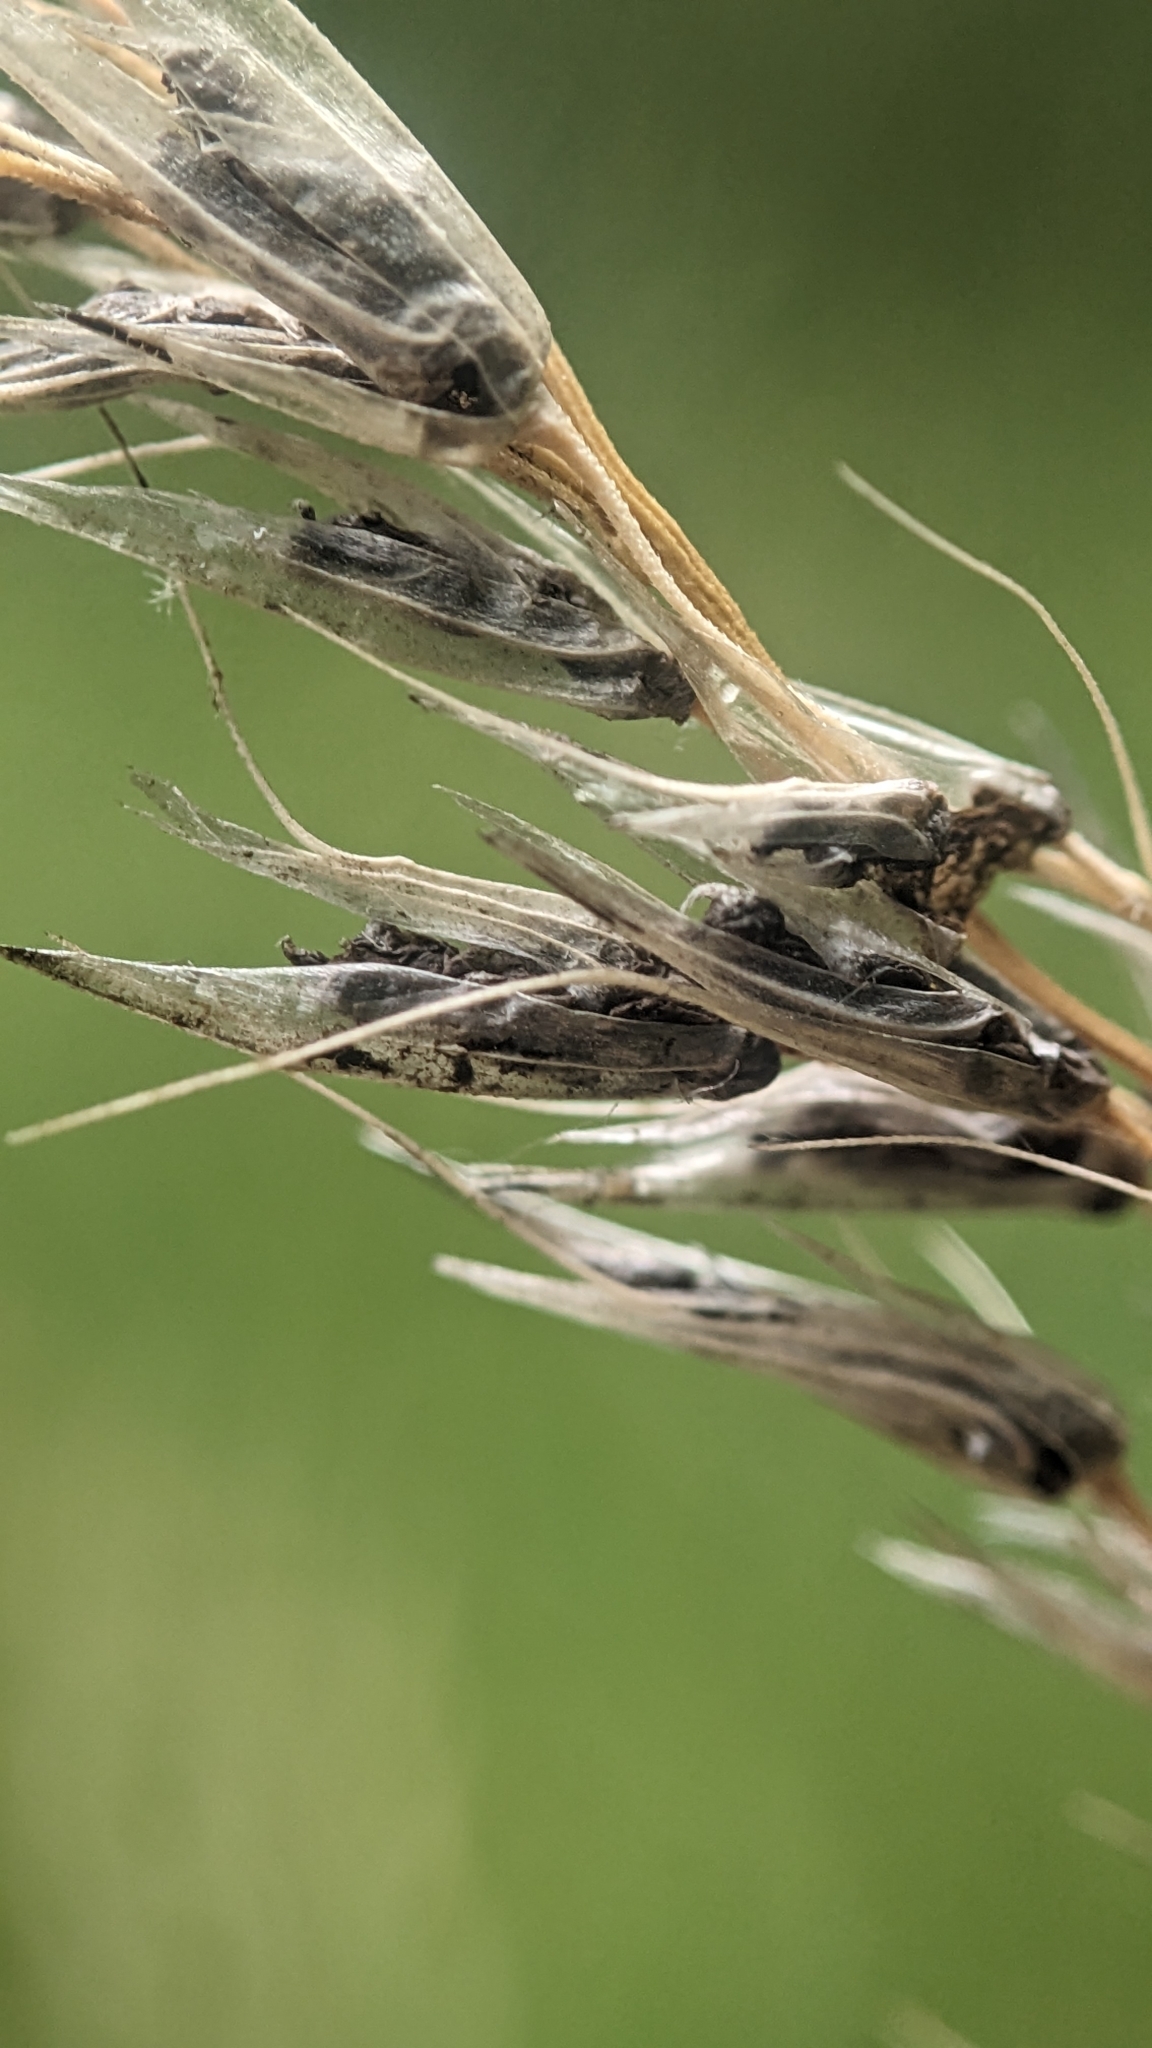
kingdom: Fungi
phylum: Basidiomycota
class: Ustilaginomycetes
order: Ustilaginales
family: Ustilaginaceae
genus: Ustilago
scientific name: Ustilago avenae
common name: Loose smut of oats & oat grass
